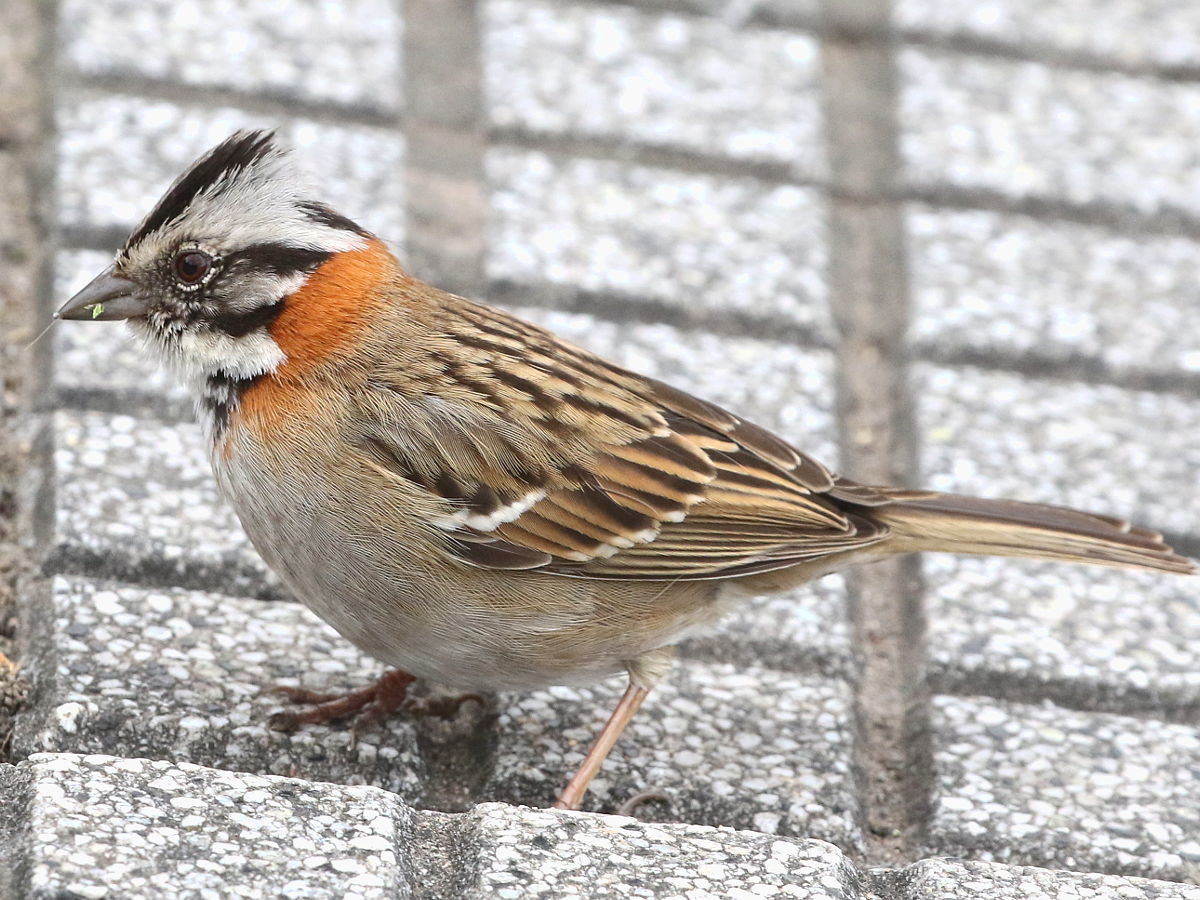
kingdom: Animalia
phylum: Chordata
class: Aves
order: Passeriformes
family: Passerellidae
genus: Zonotrichia
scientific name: Zonotrichia capensis
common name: Rufous-collared sparrow
